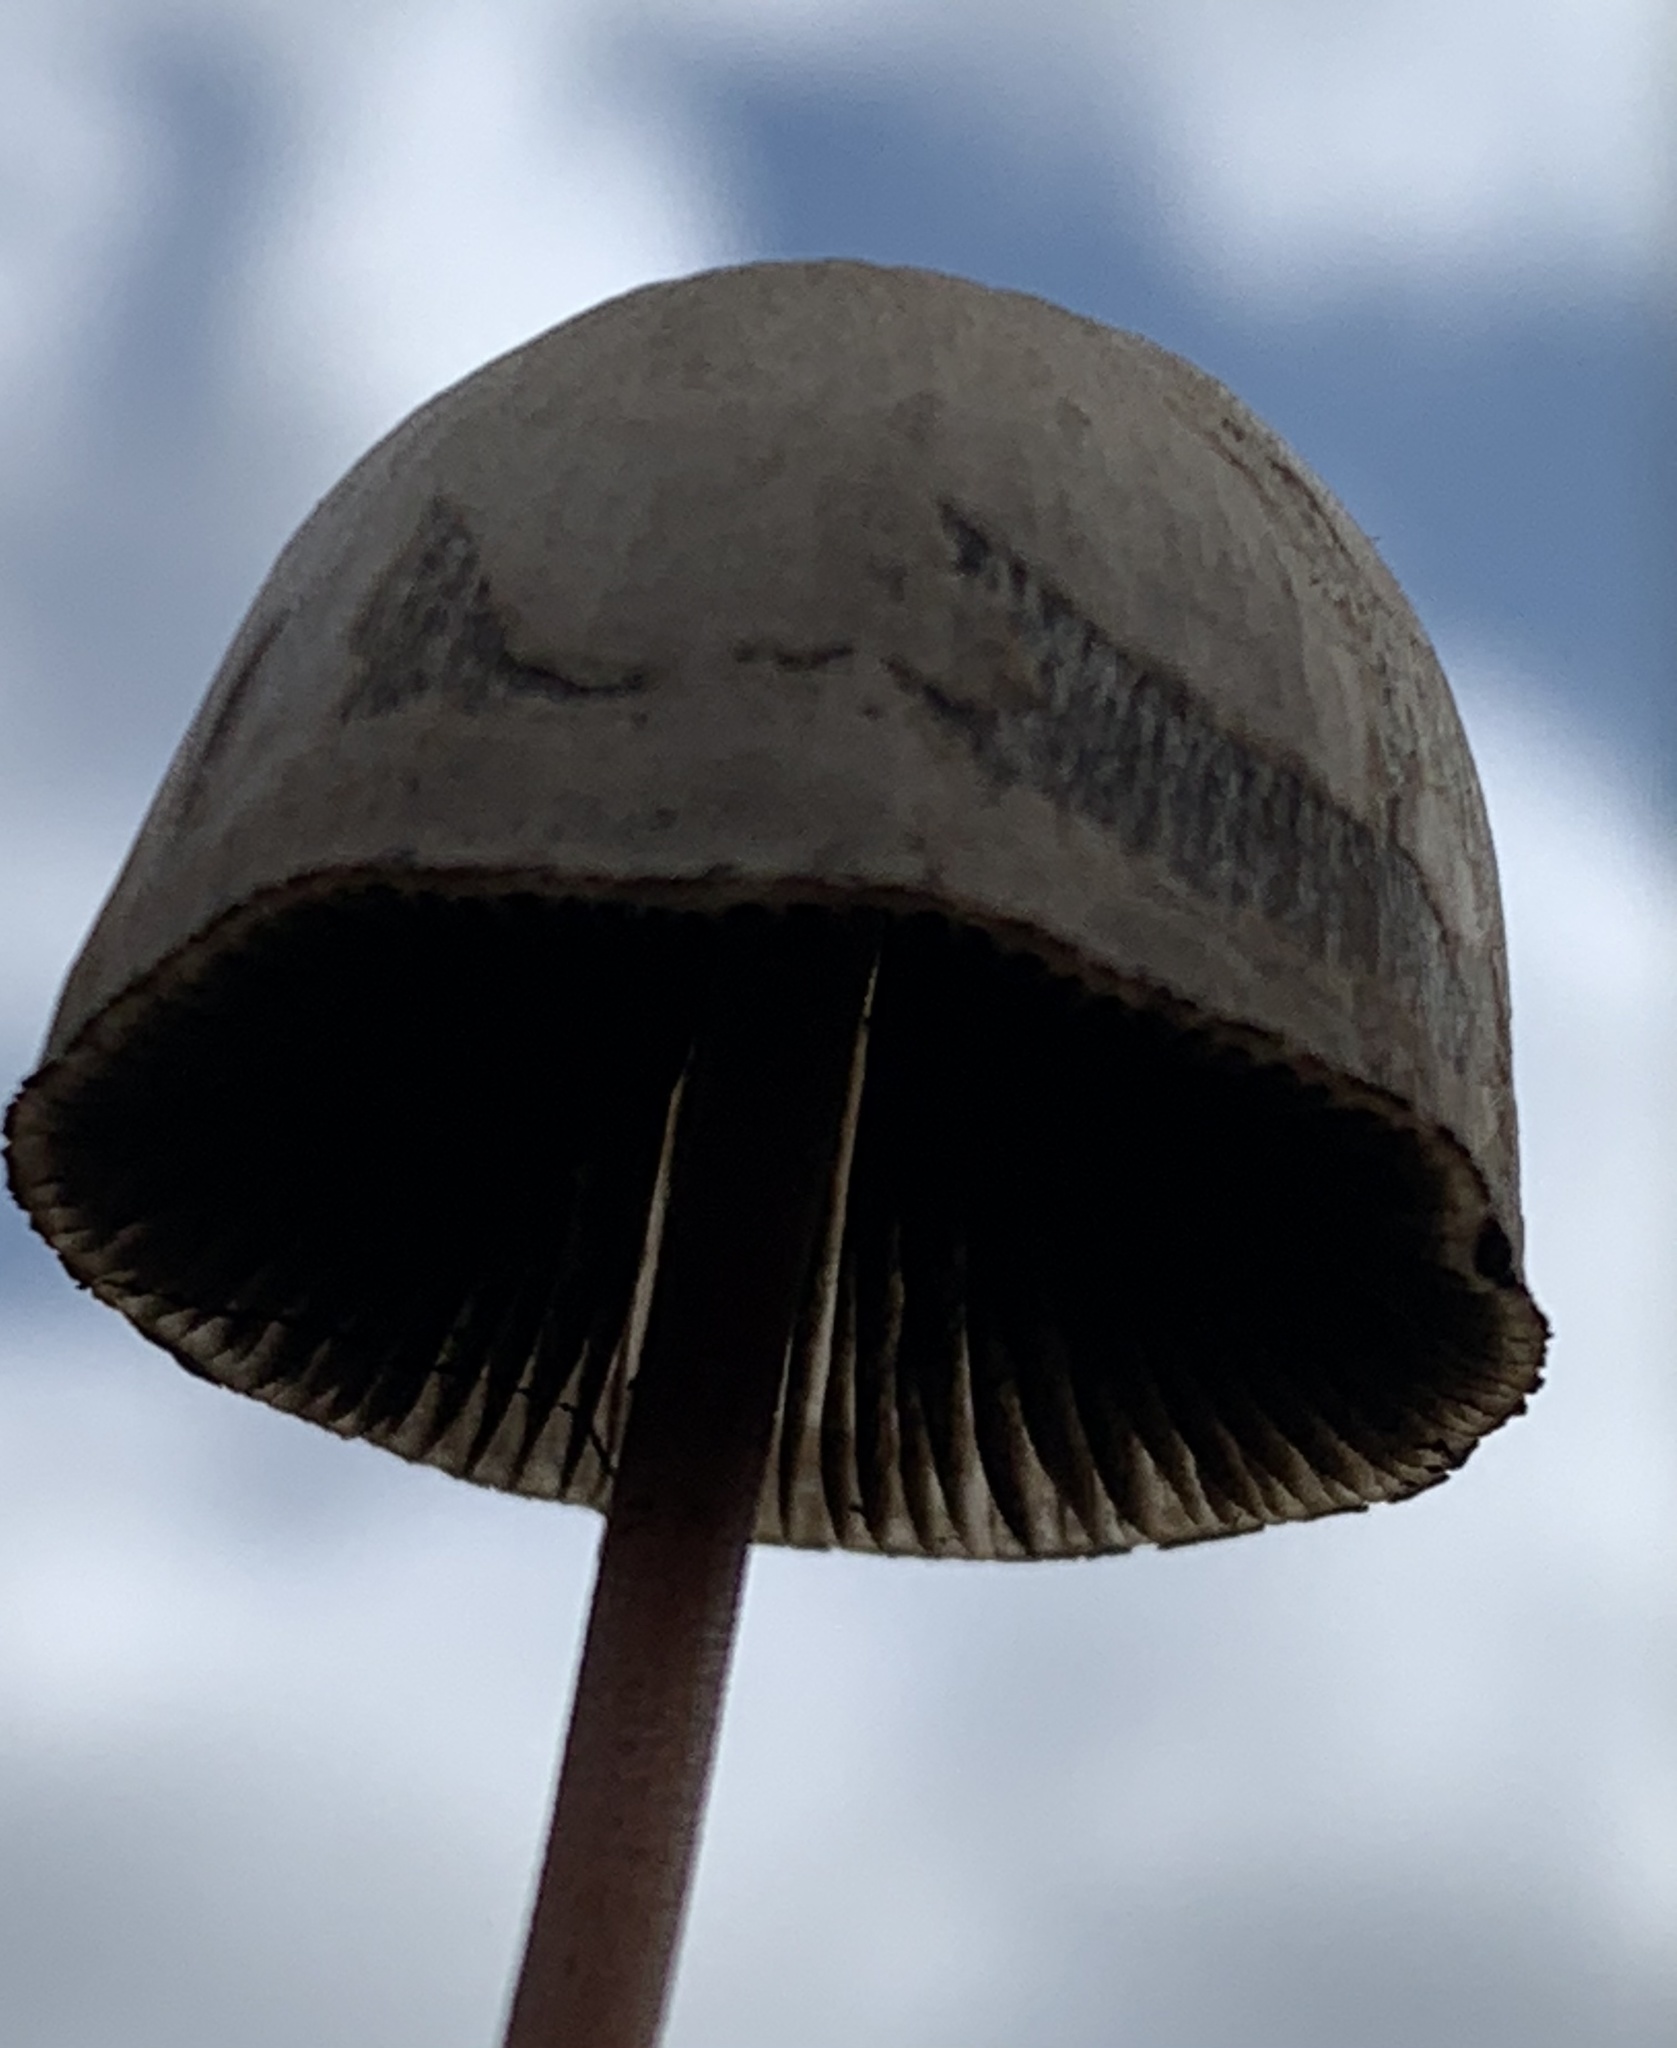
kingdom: Fungi
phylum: Basidiomycota
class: Agaricomycetes
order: Agaricales
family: Bolbitiaceae
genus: Panaeolus
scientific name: Panaeolus papilionaceus
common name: Petticoat mottlegill
